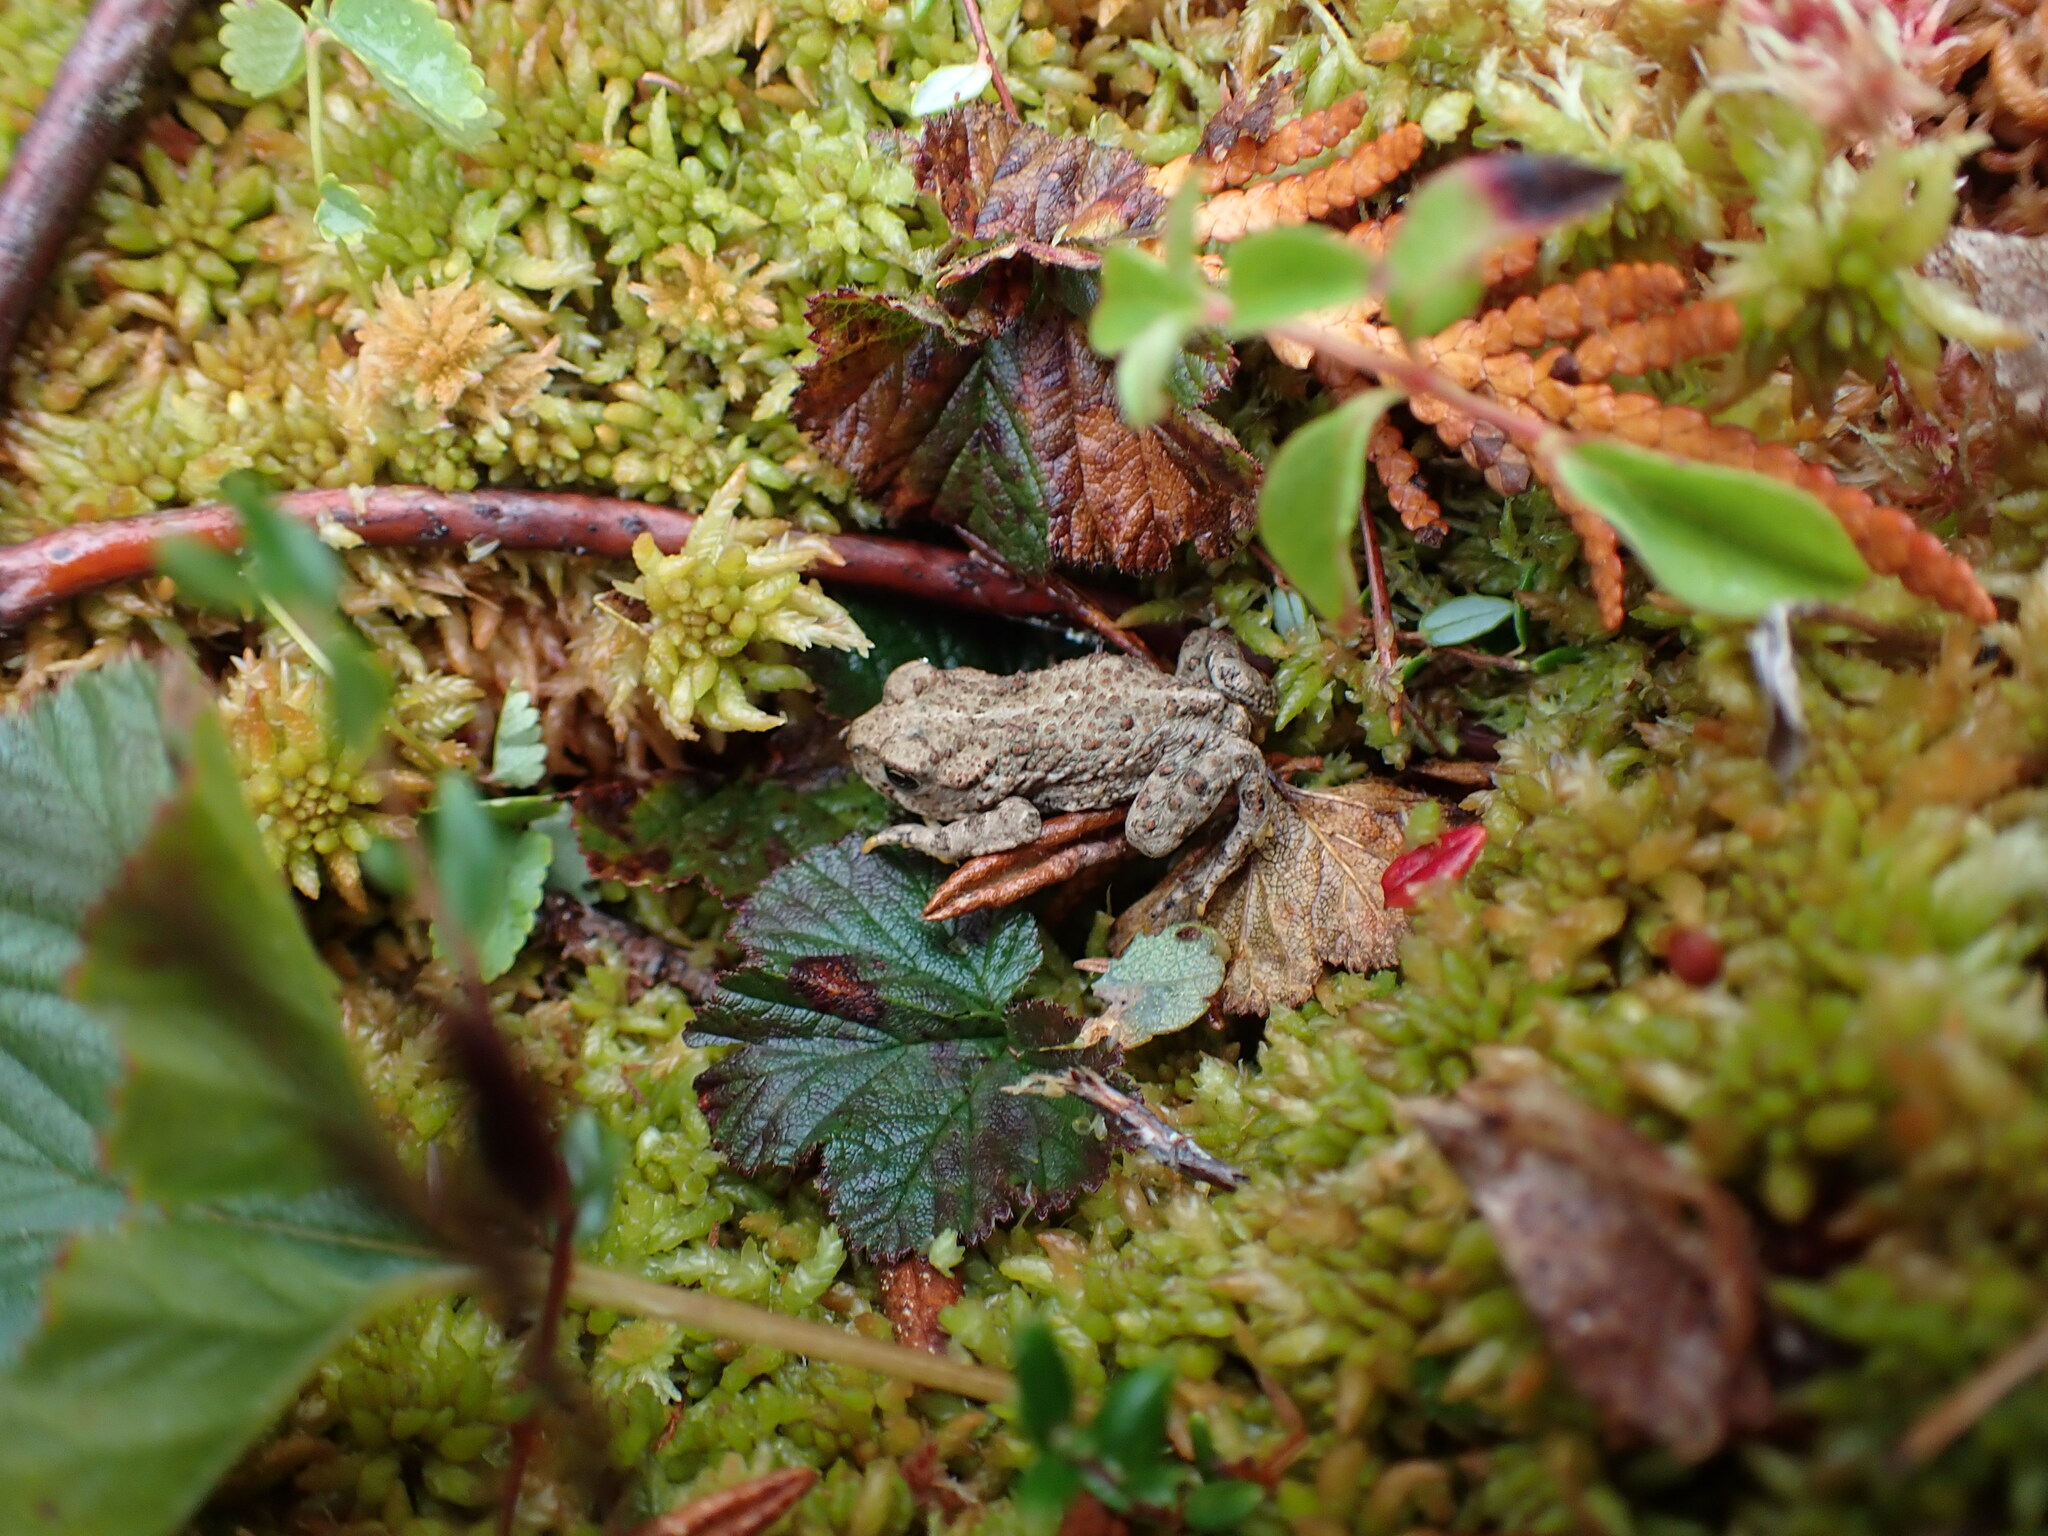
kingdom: Animalia
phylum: Chordata
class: Amphibia
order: Anura
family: Bufonidae
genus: Anaxyrus
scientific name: Anaxyrus boreas
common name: Western toad
